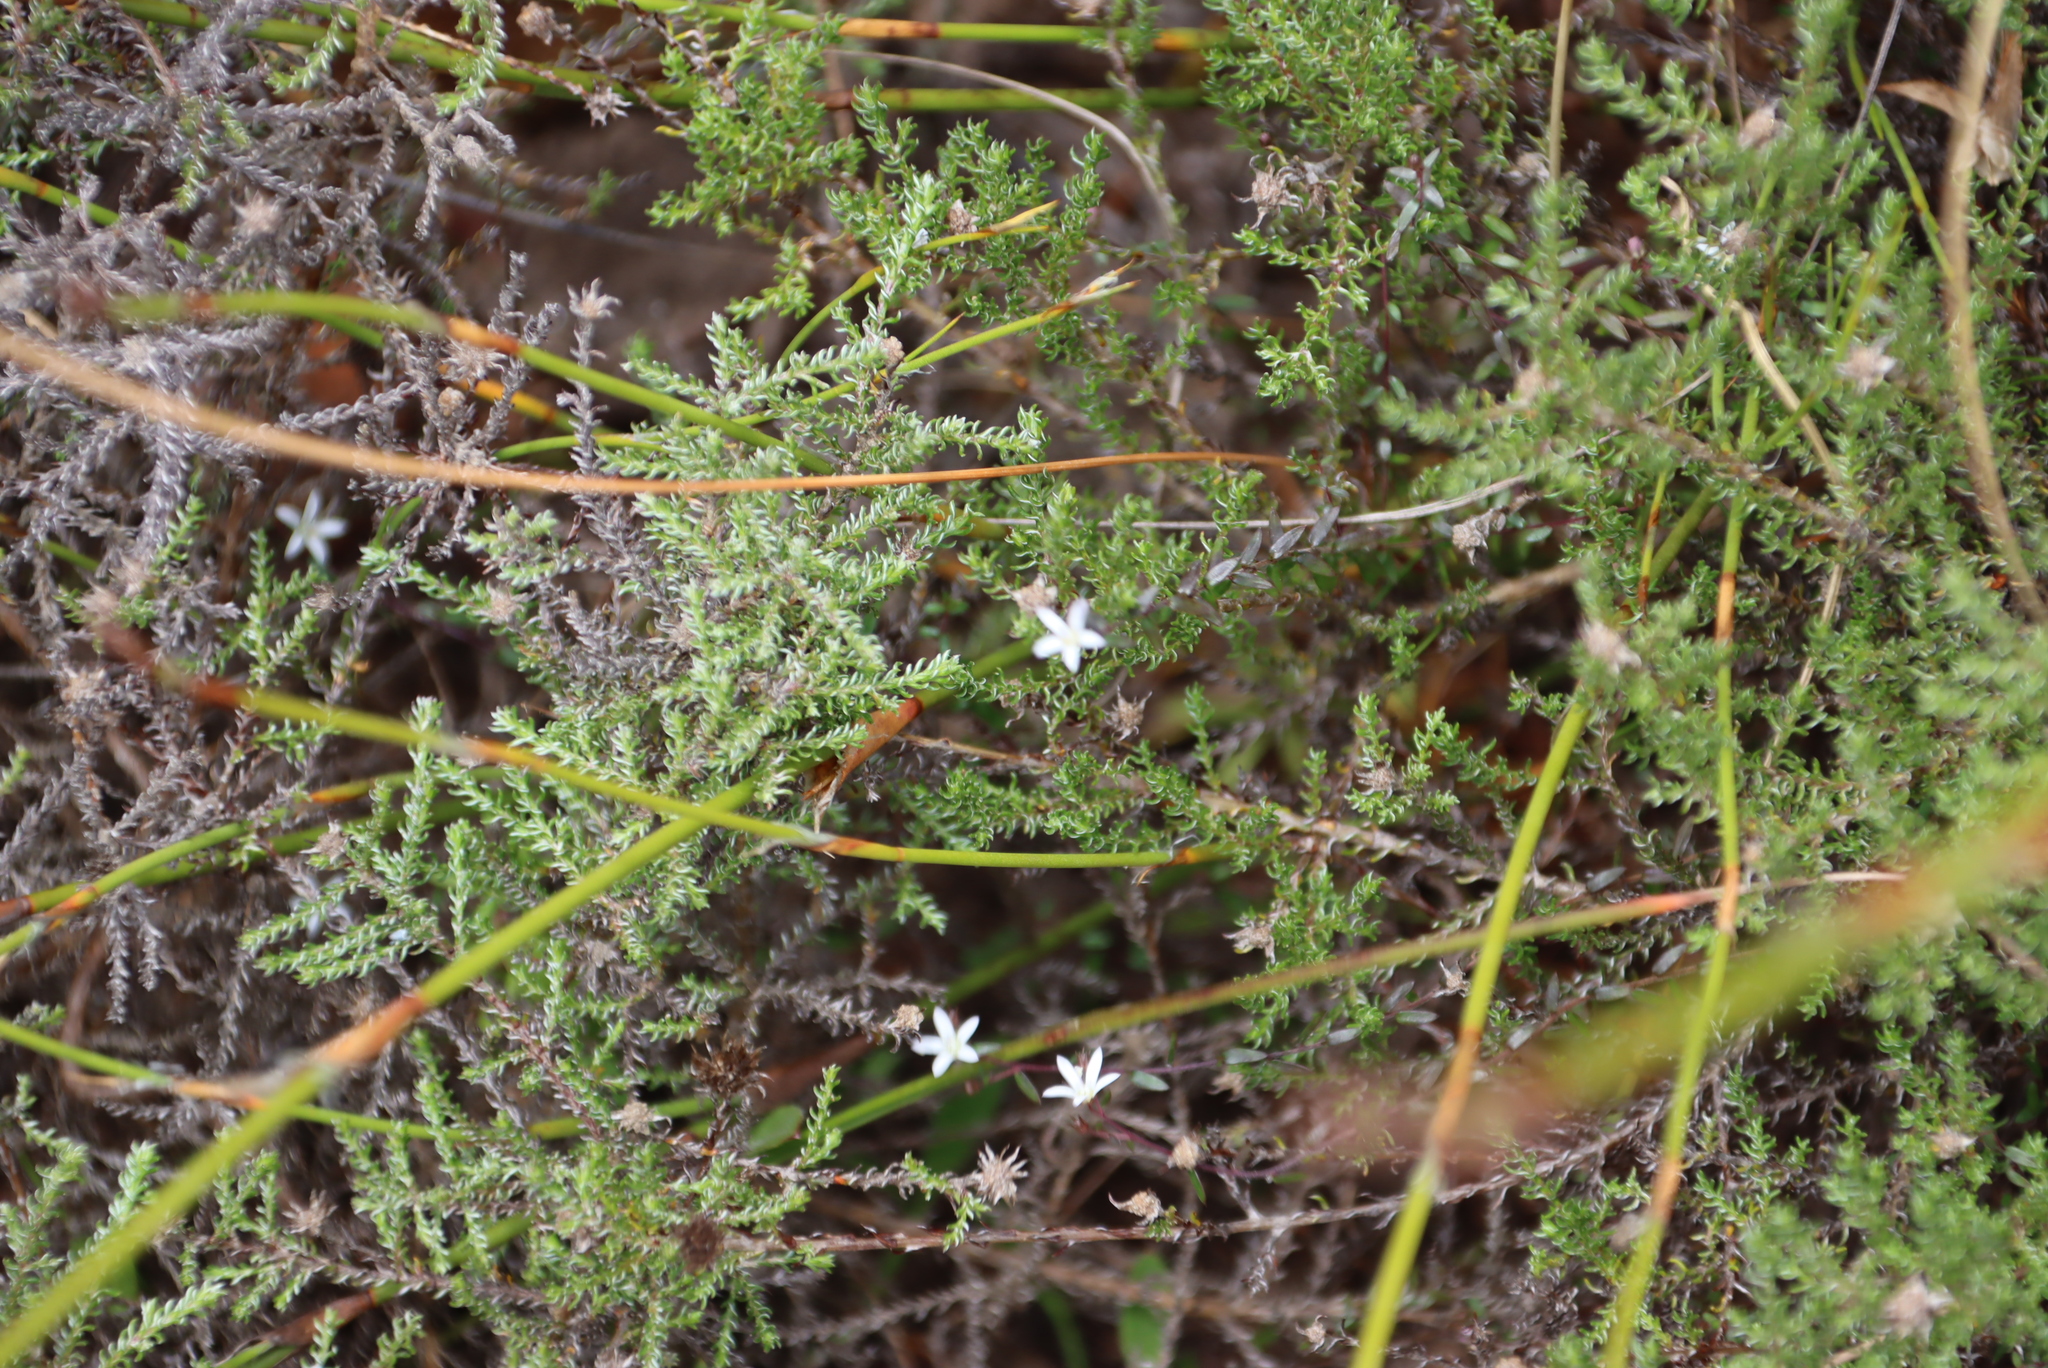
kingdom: Plantae
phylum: Tracheophyta
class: Magnoliopsida
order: Asterales
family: Campanulaceae
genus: Wahlenbergia
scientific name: Wahlenbergia parvifolia
